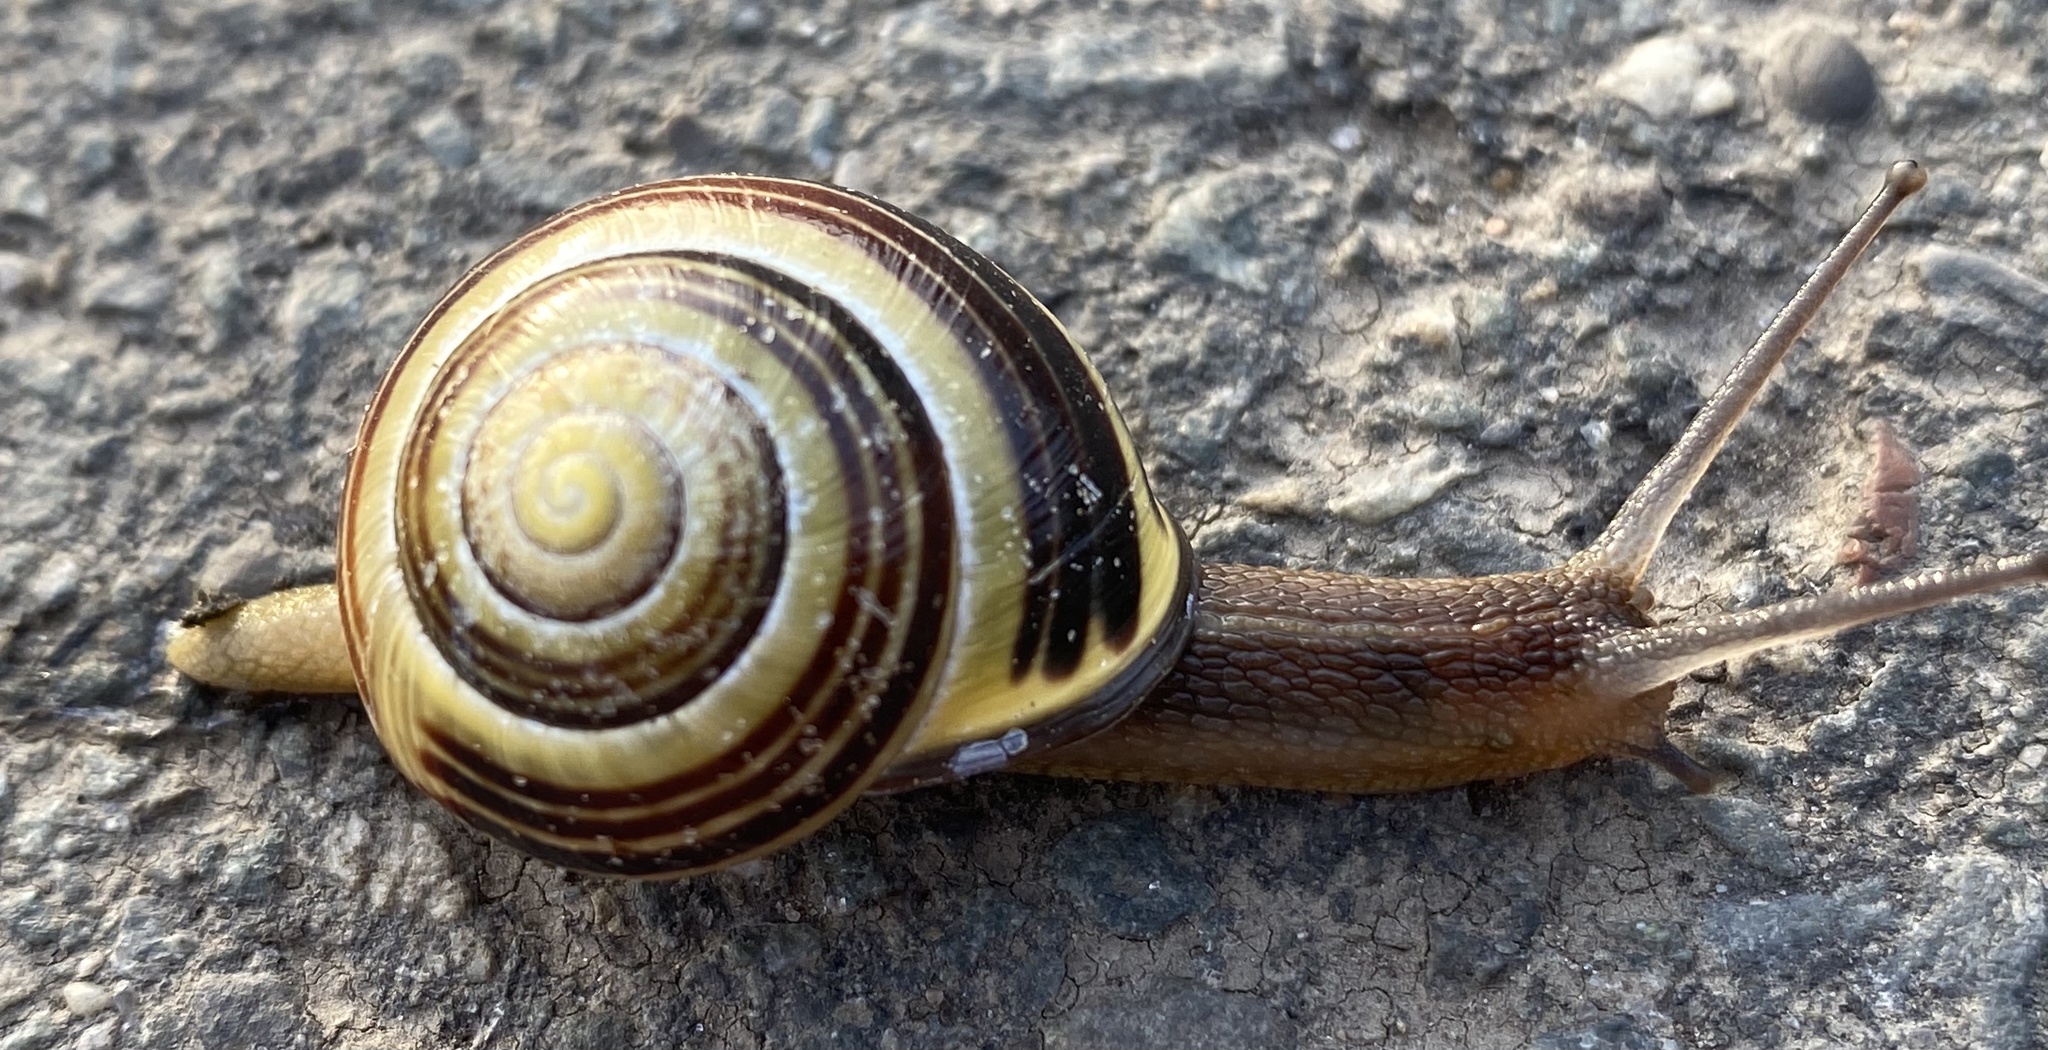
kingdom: Animalia
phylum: Mollusca
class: Gastropoda
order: Stylommatophora
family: Helicidae
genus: Cepaea
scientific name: Cepaea nemoralis
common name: Grovesnail
